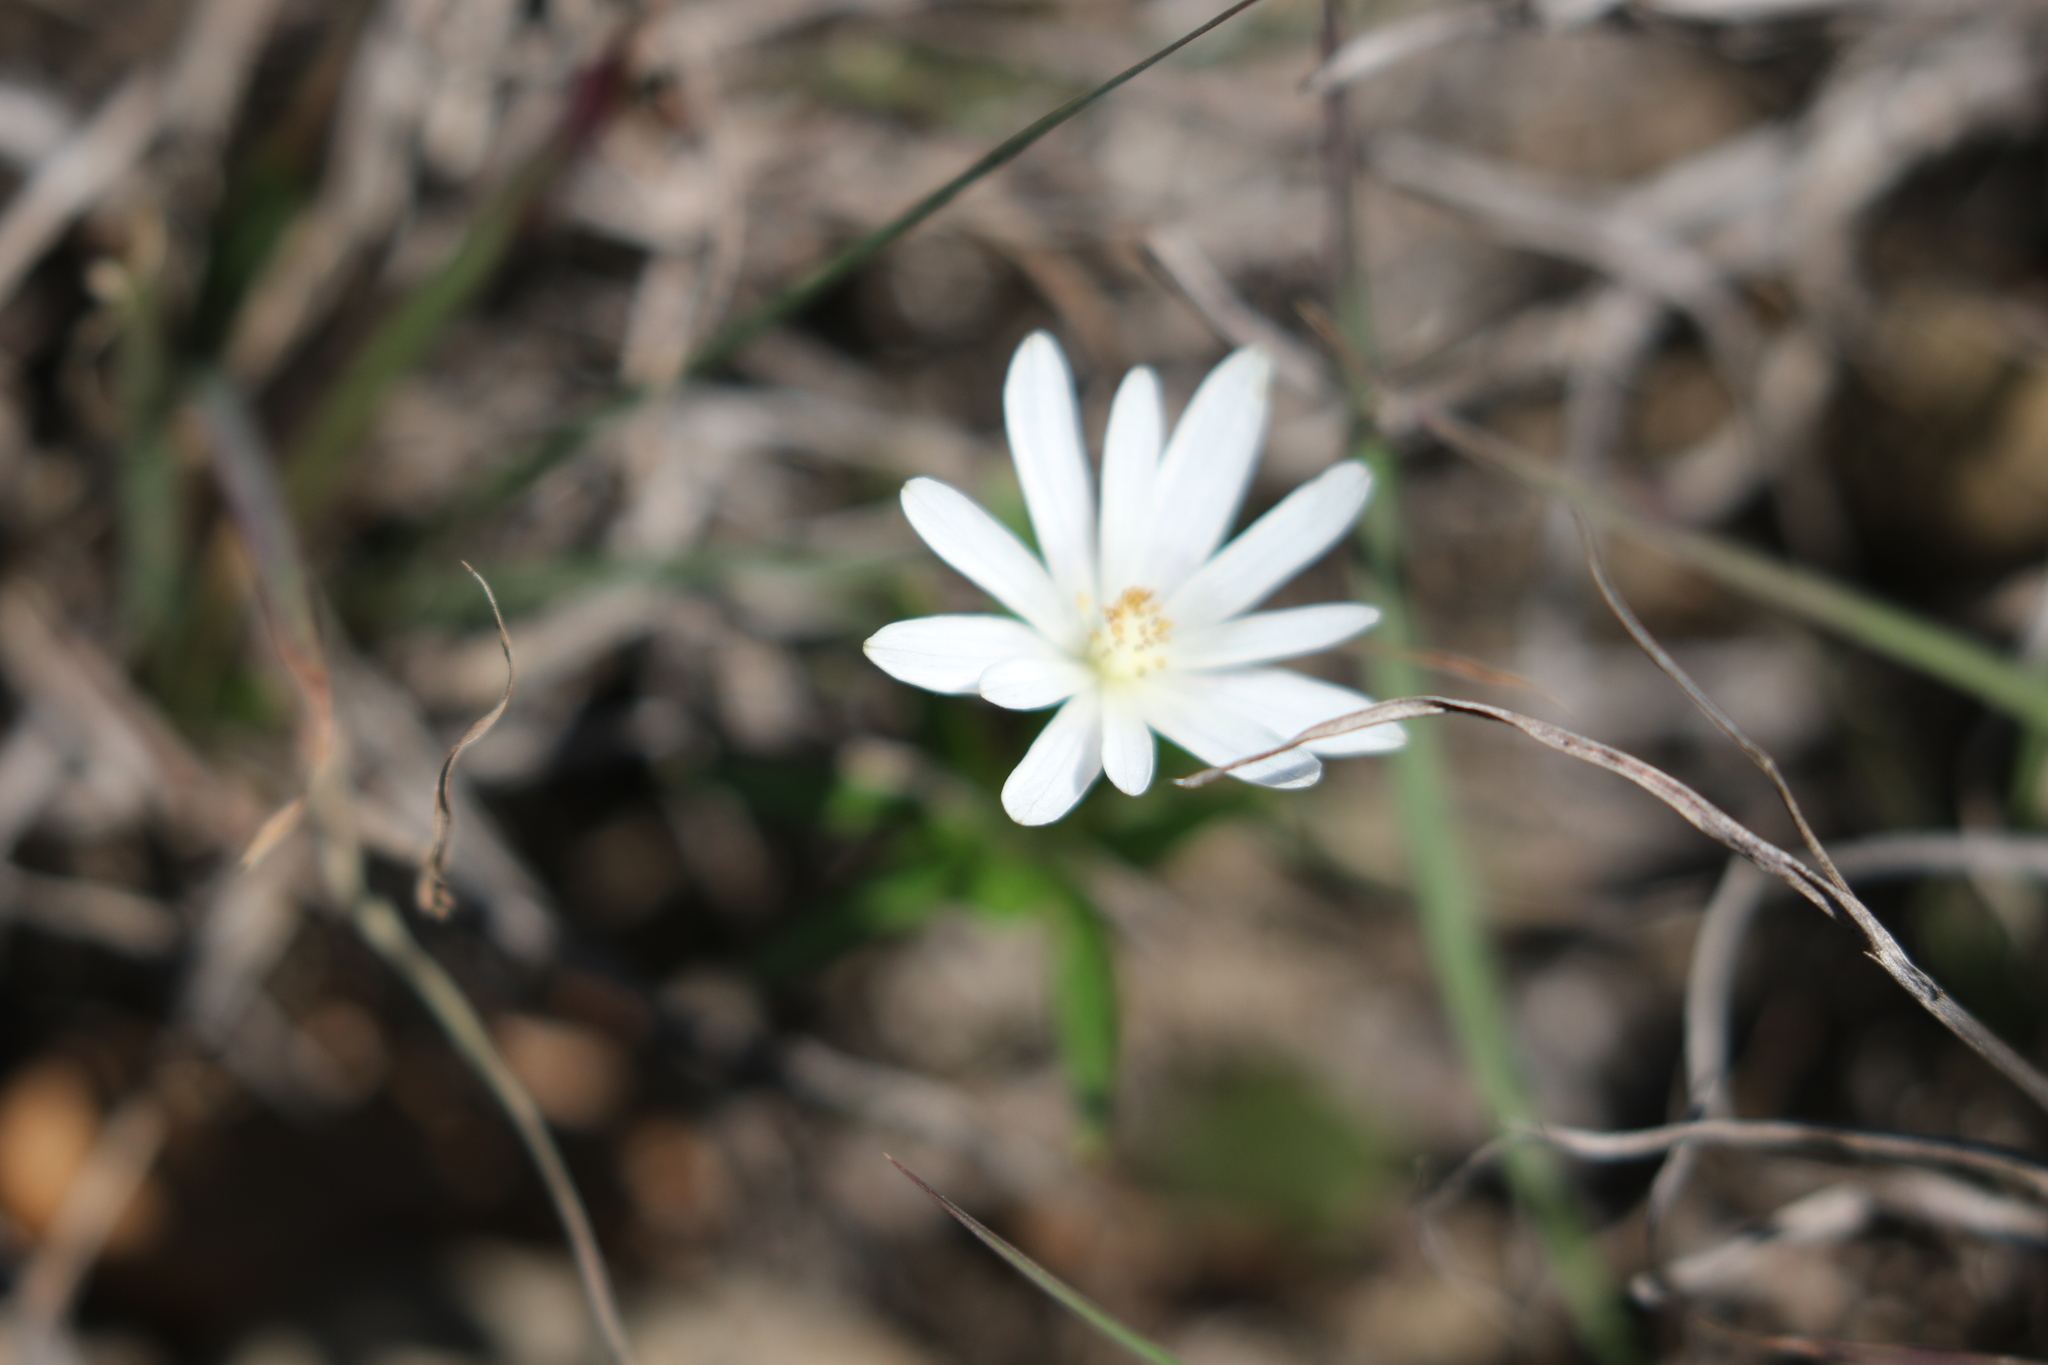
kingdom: Plantae
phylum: Tracheophyta
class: Magnoliopsida
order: Ranunculales
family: Ranunculaceae
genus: Anemone
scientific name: Anemone berlandieri
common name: Ten-petal anemone
